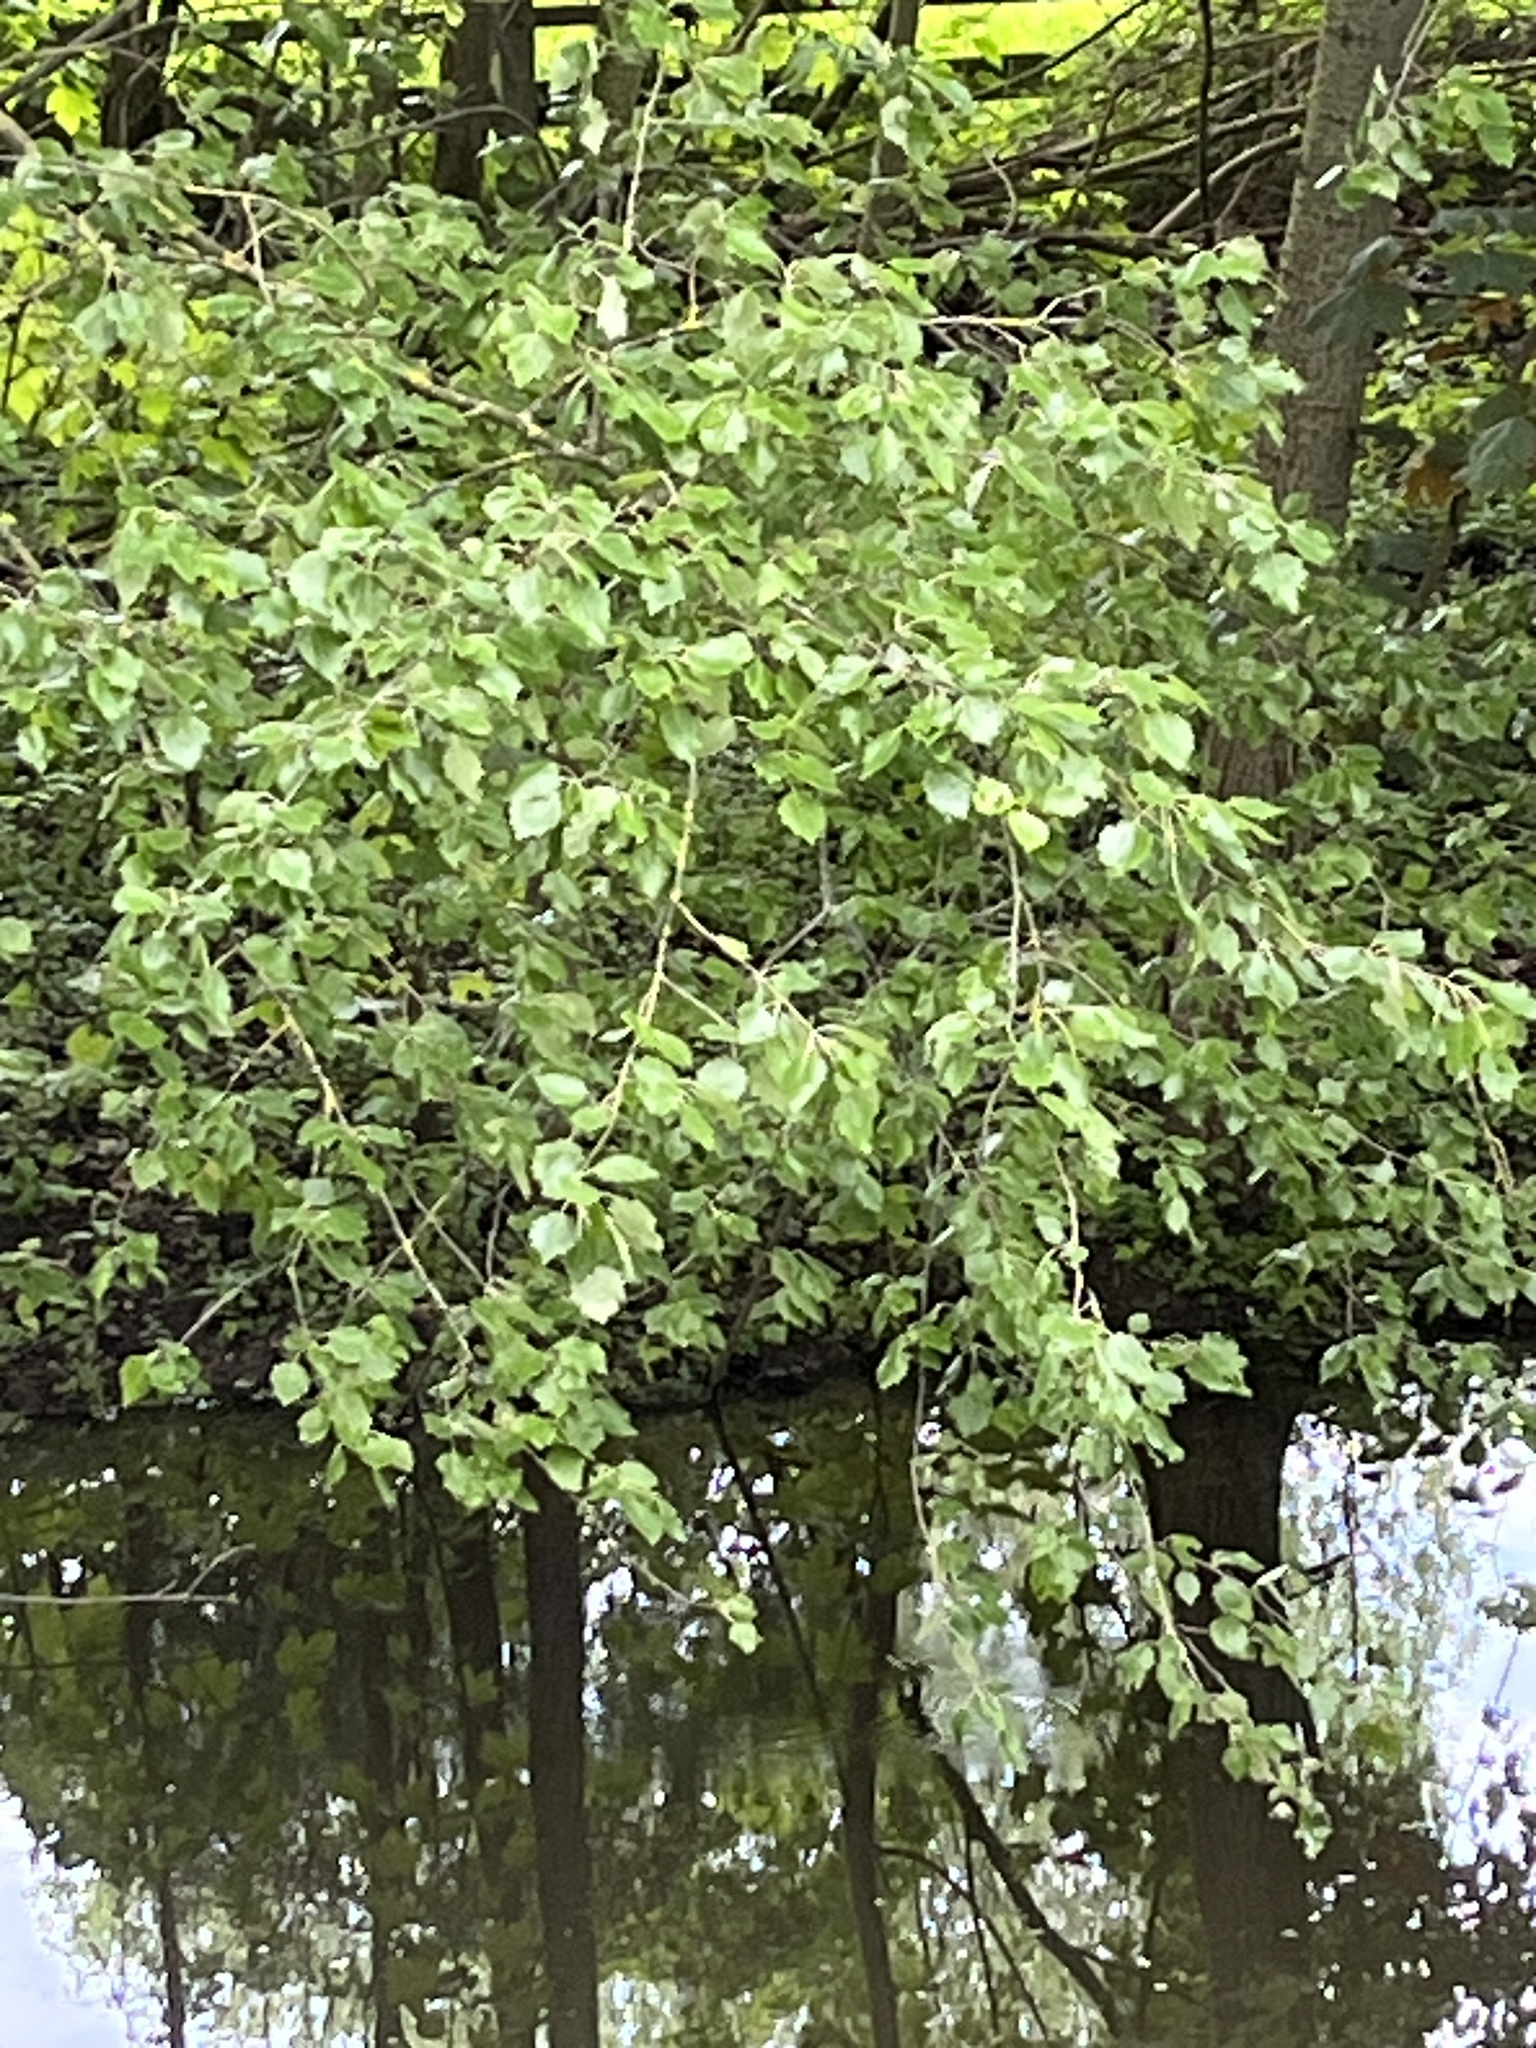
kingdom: Plantae
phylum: Tracheophyta
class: Magnoliopsida
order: Malpighiales
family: Salicaceae
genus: Populus
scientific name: Populus alba
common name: White poplar
